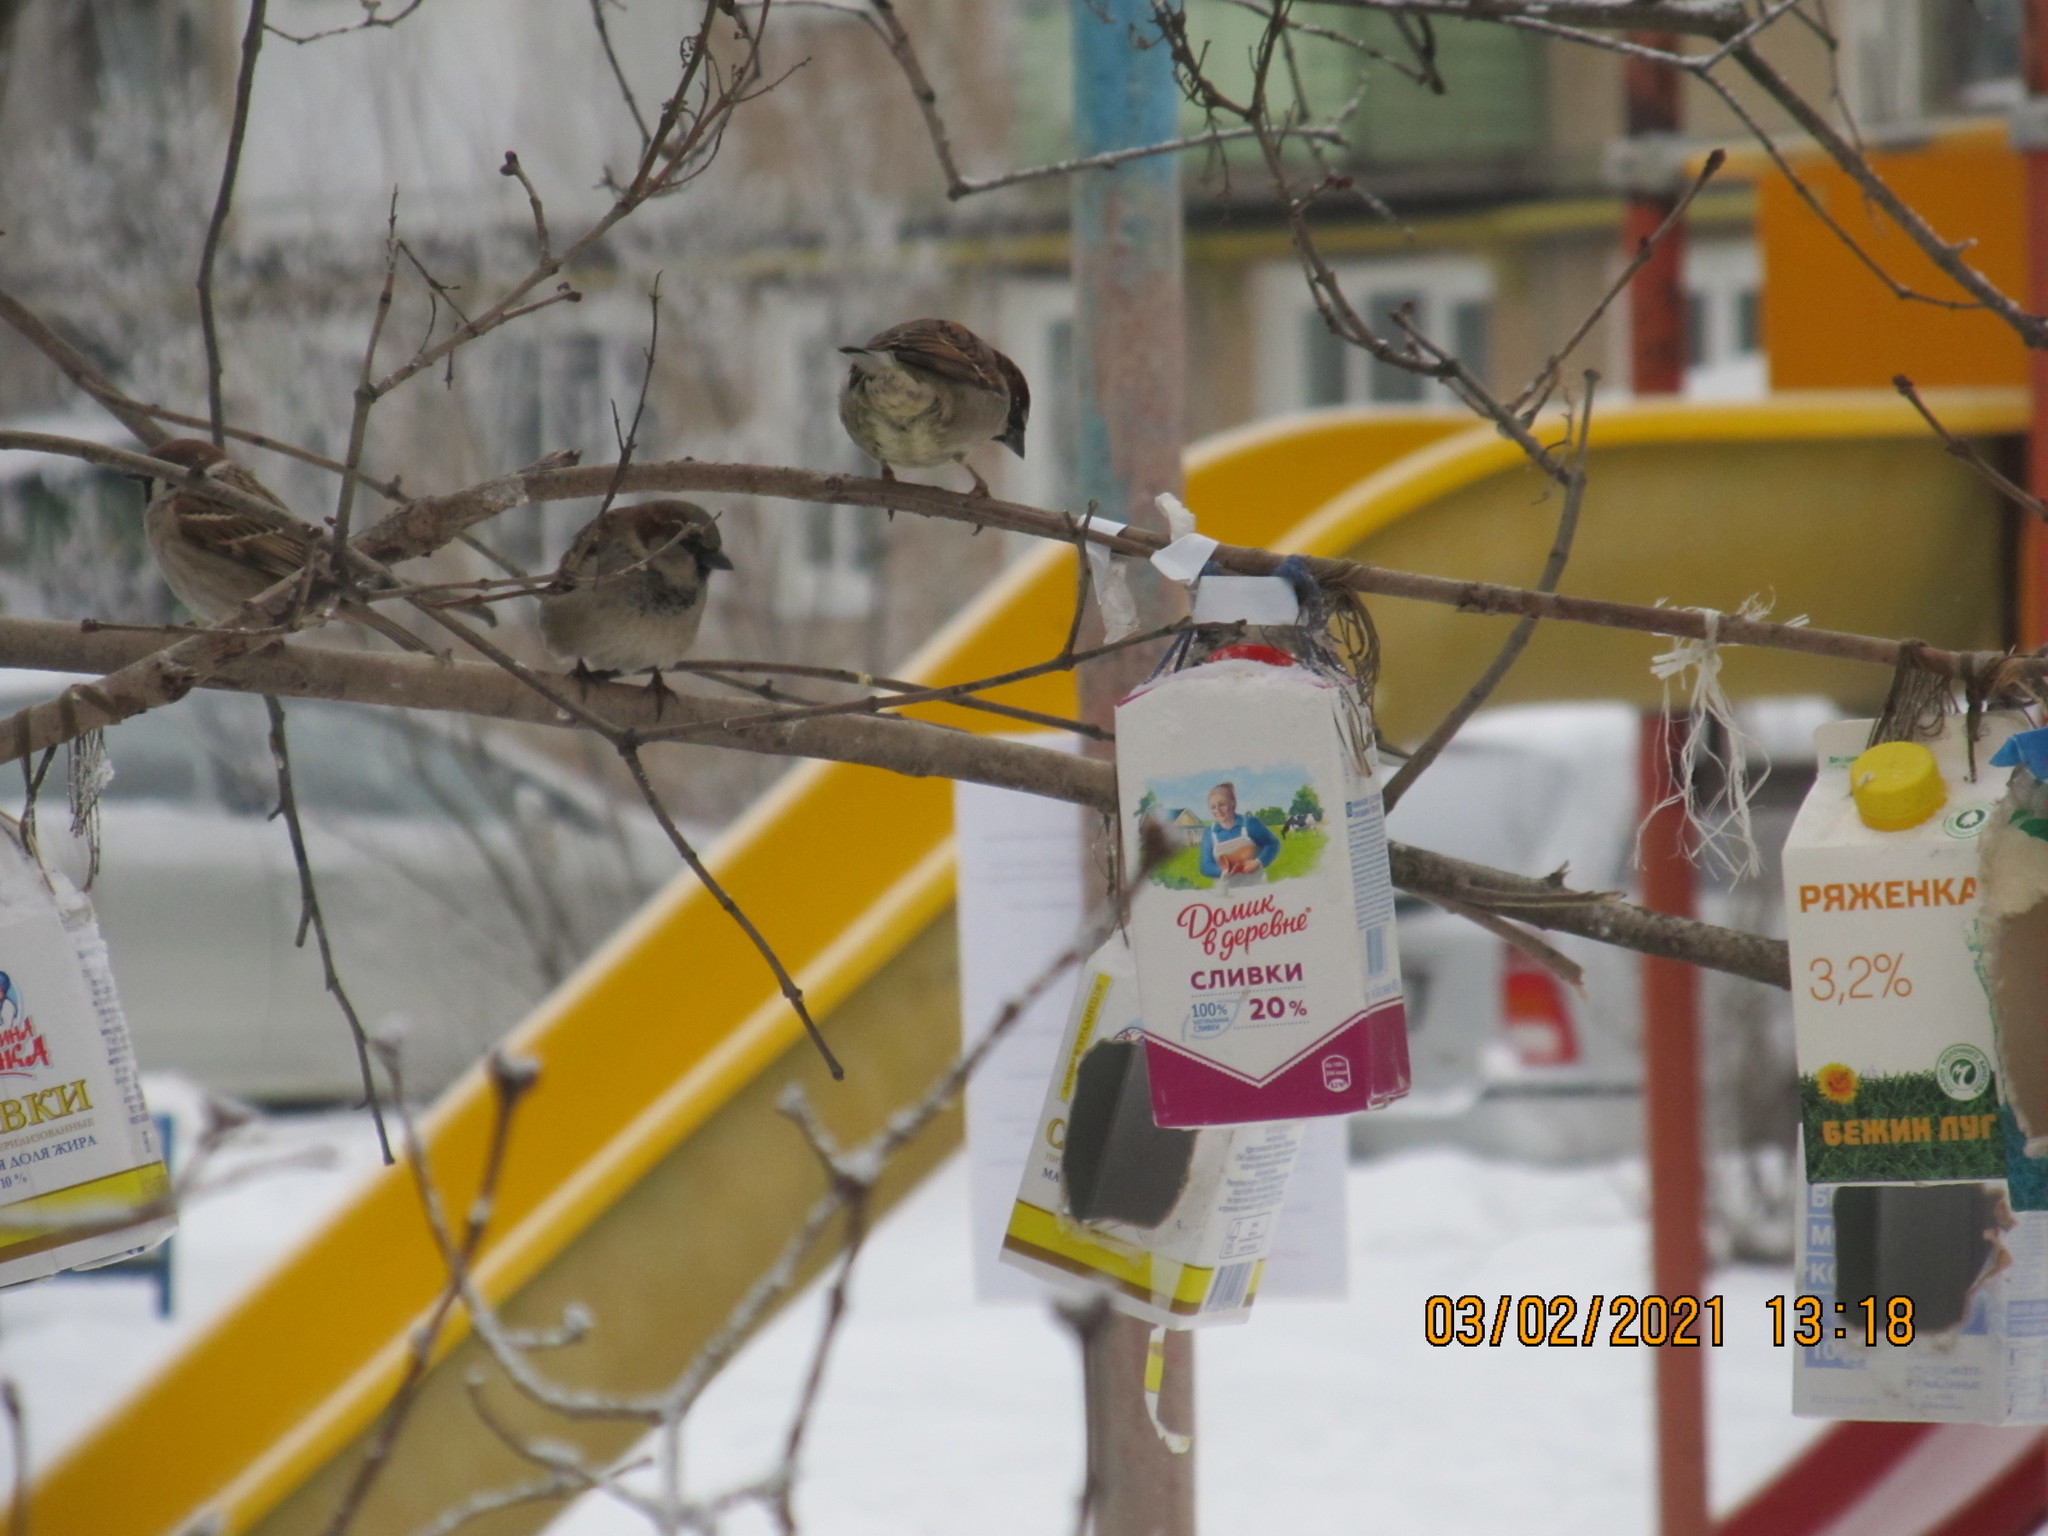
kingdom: Animalia
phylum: Chordata
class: Aves
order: Passeriformes
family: Passeridae
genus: Passer
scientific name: Passer domesticus
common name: House sparrow
